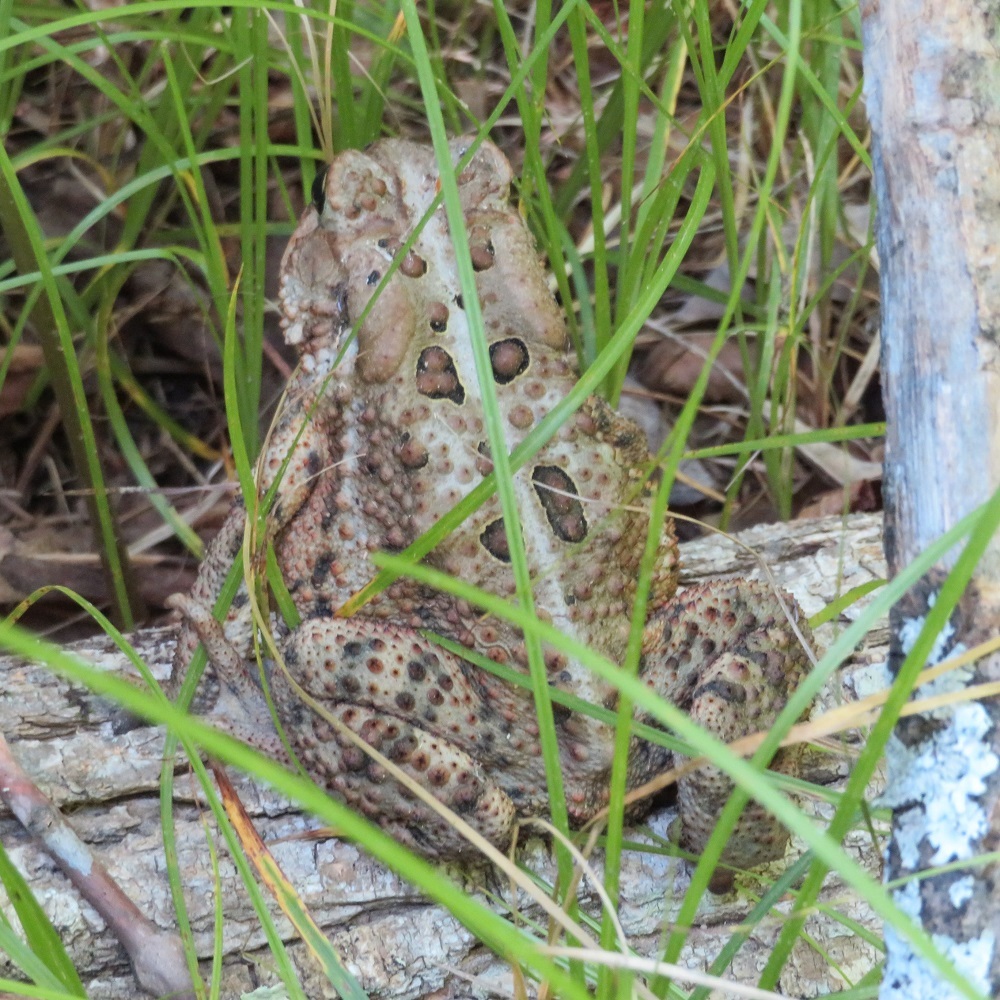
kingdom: Animalia
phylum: Chordata
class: Amphibia
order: Anura
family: Bufonidae
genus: Anaxyrus
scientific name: Anaxyrus americanus
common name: American toad
